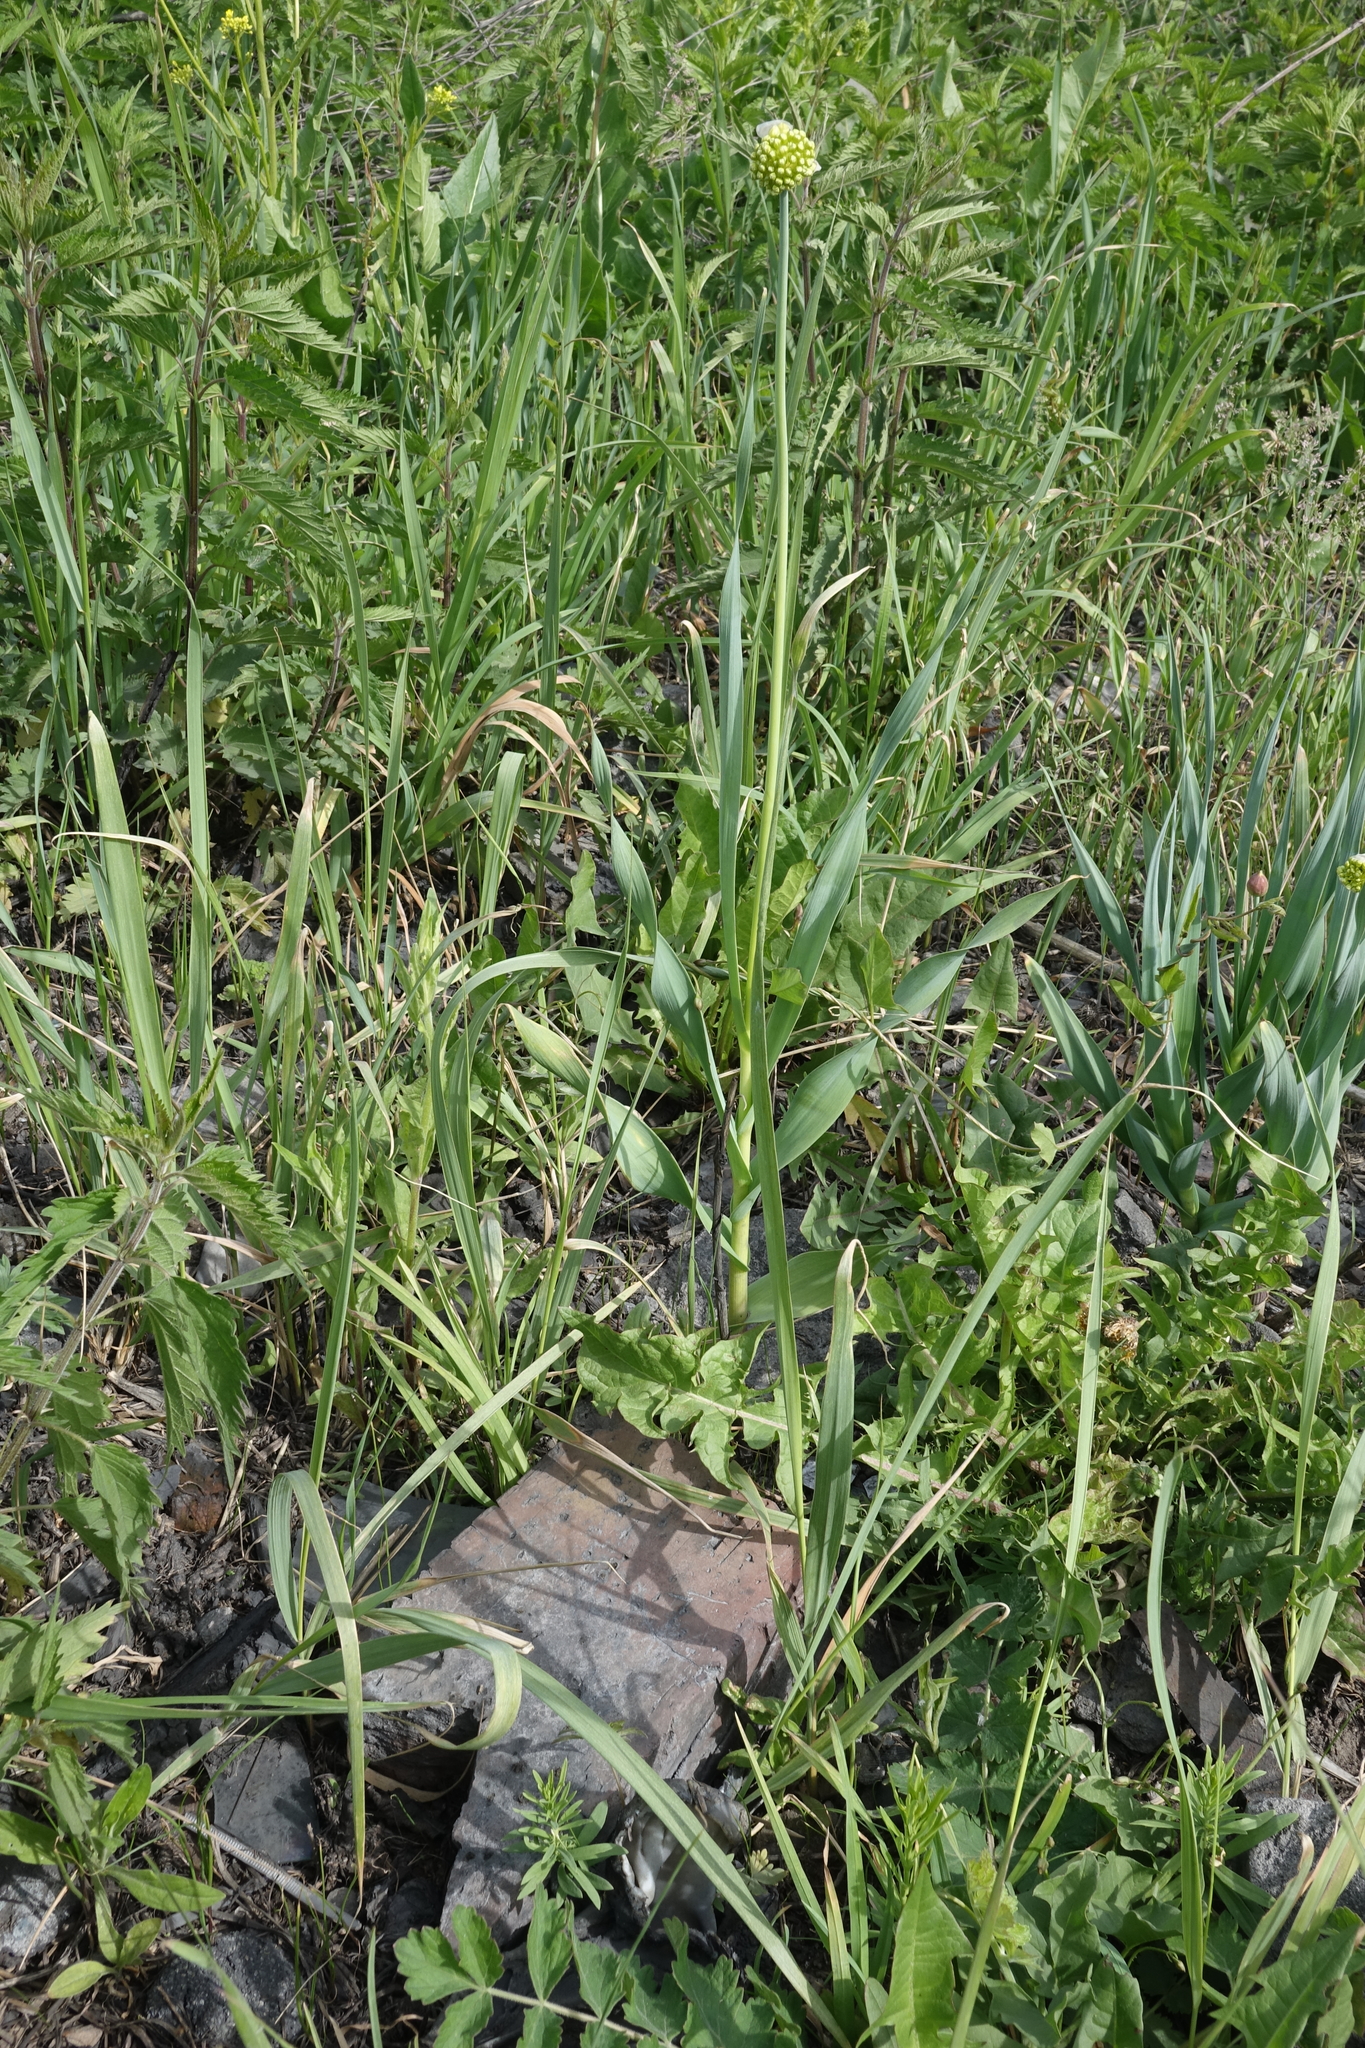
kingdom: Plantae
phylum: Tracheophyta
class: Liliopsida
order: Asparagales
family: Amaryllidaceae
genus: Allium
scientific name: Allium obliquum
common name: Oblique onion
